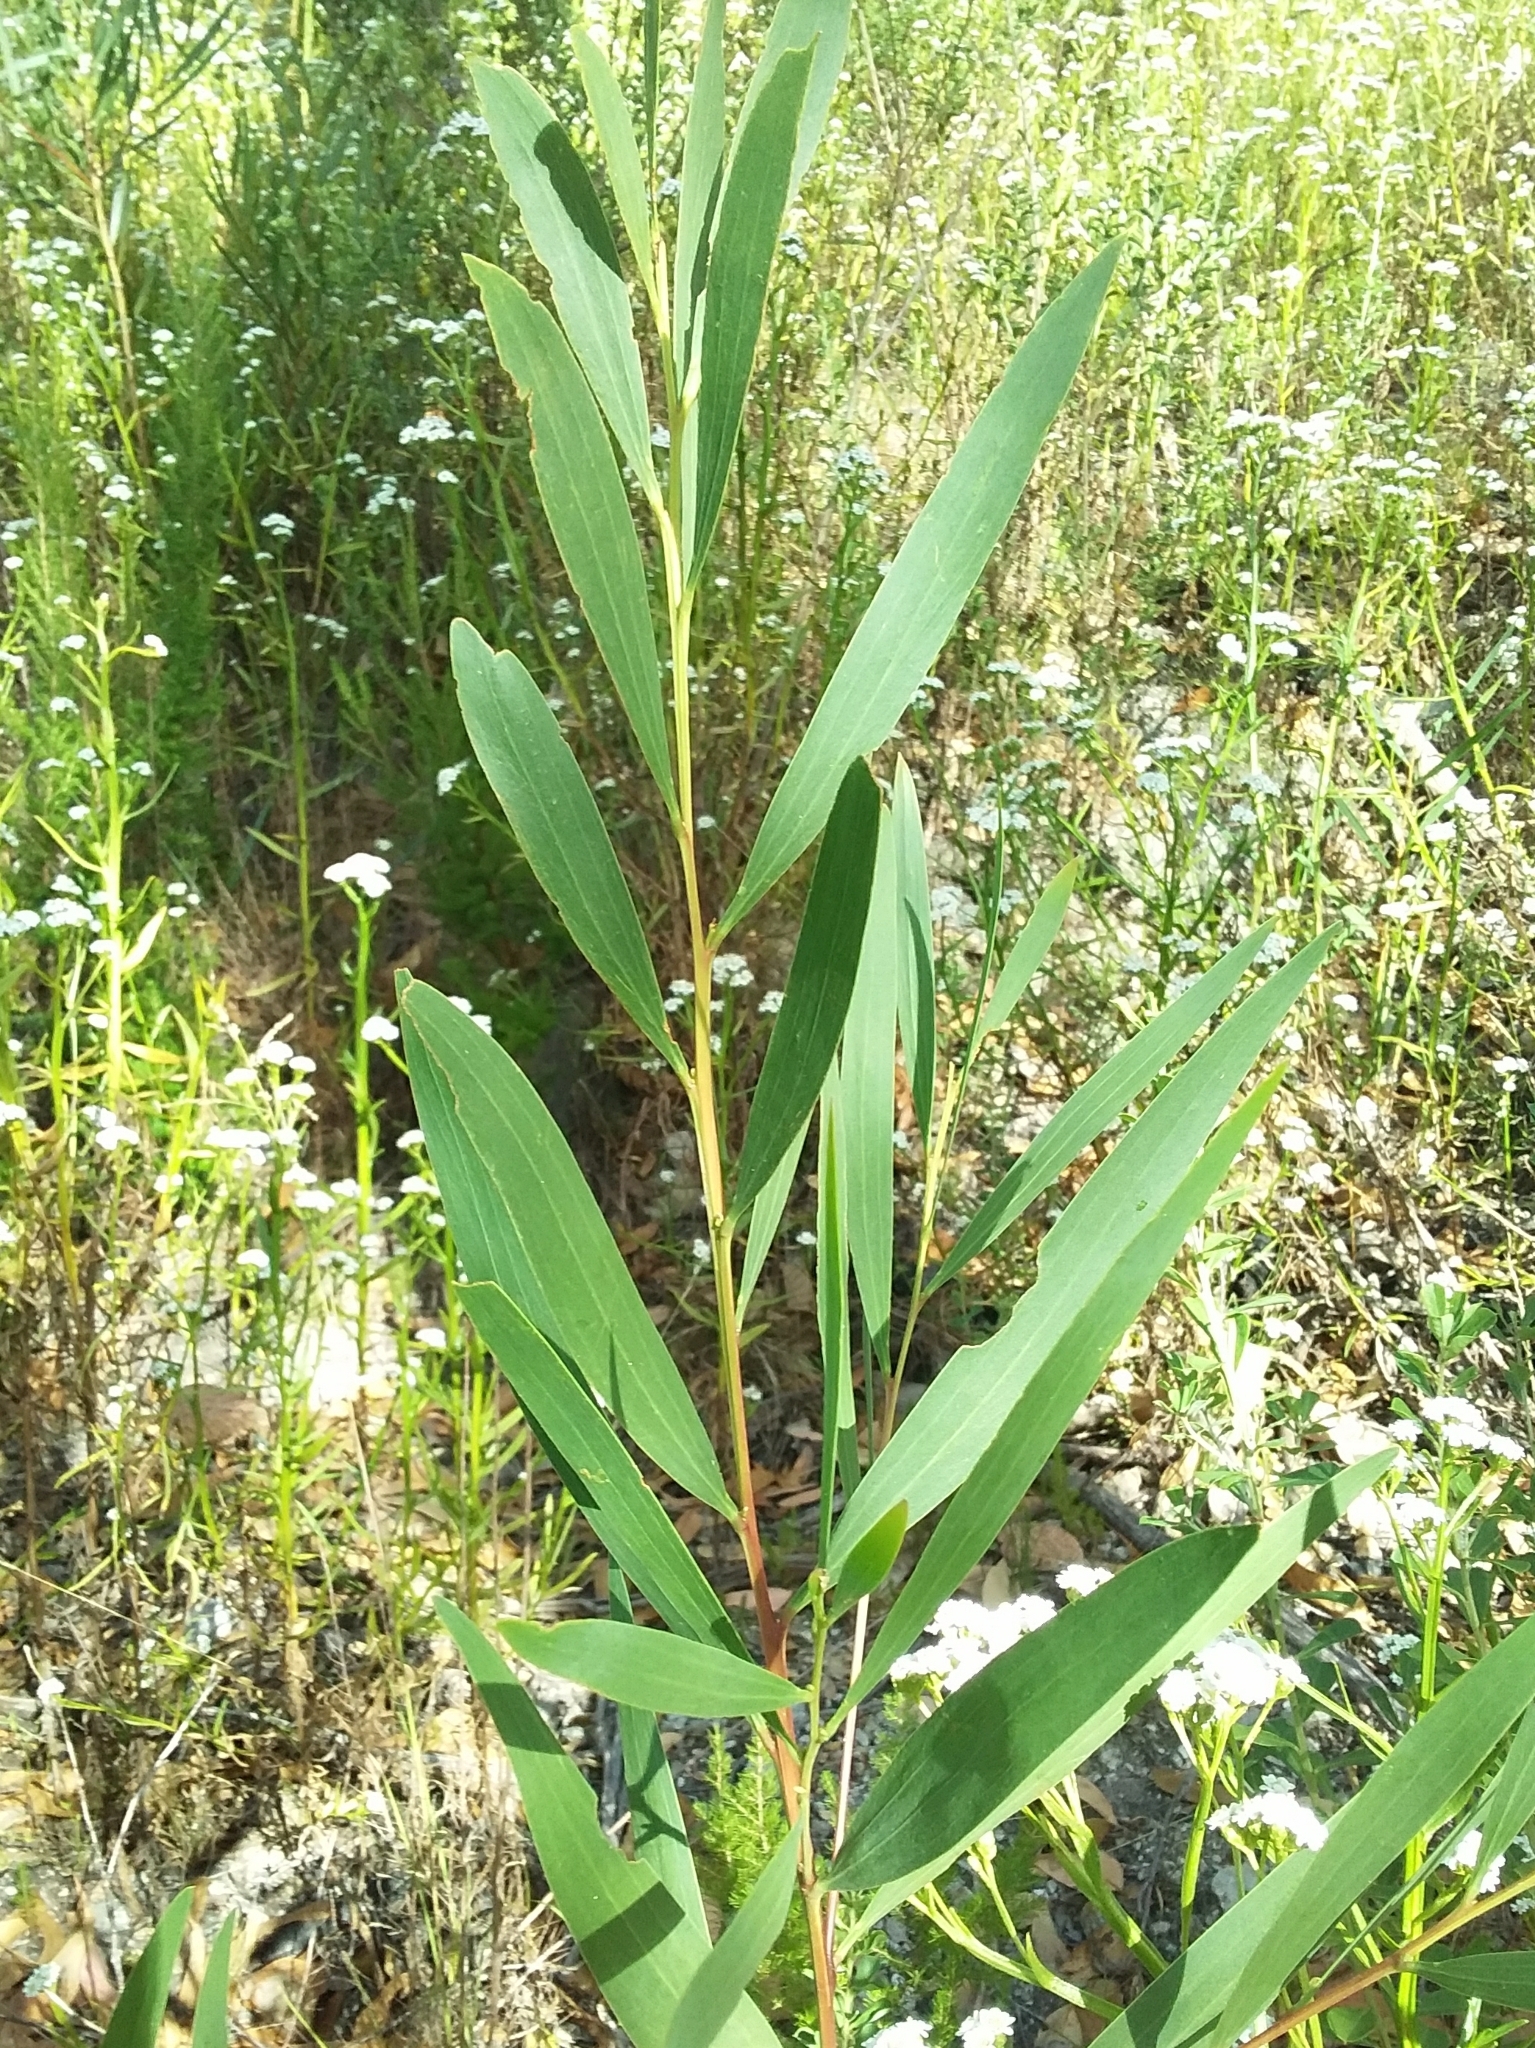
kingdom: Plantae
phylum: Tracheophyta
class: Magnoliopsida
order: Fabales
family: Fabaceae
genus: Daviesia
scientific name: Daviesia leptophylla
